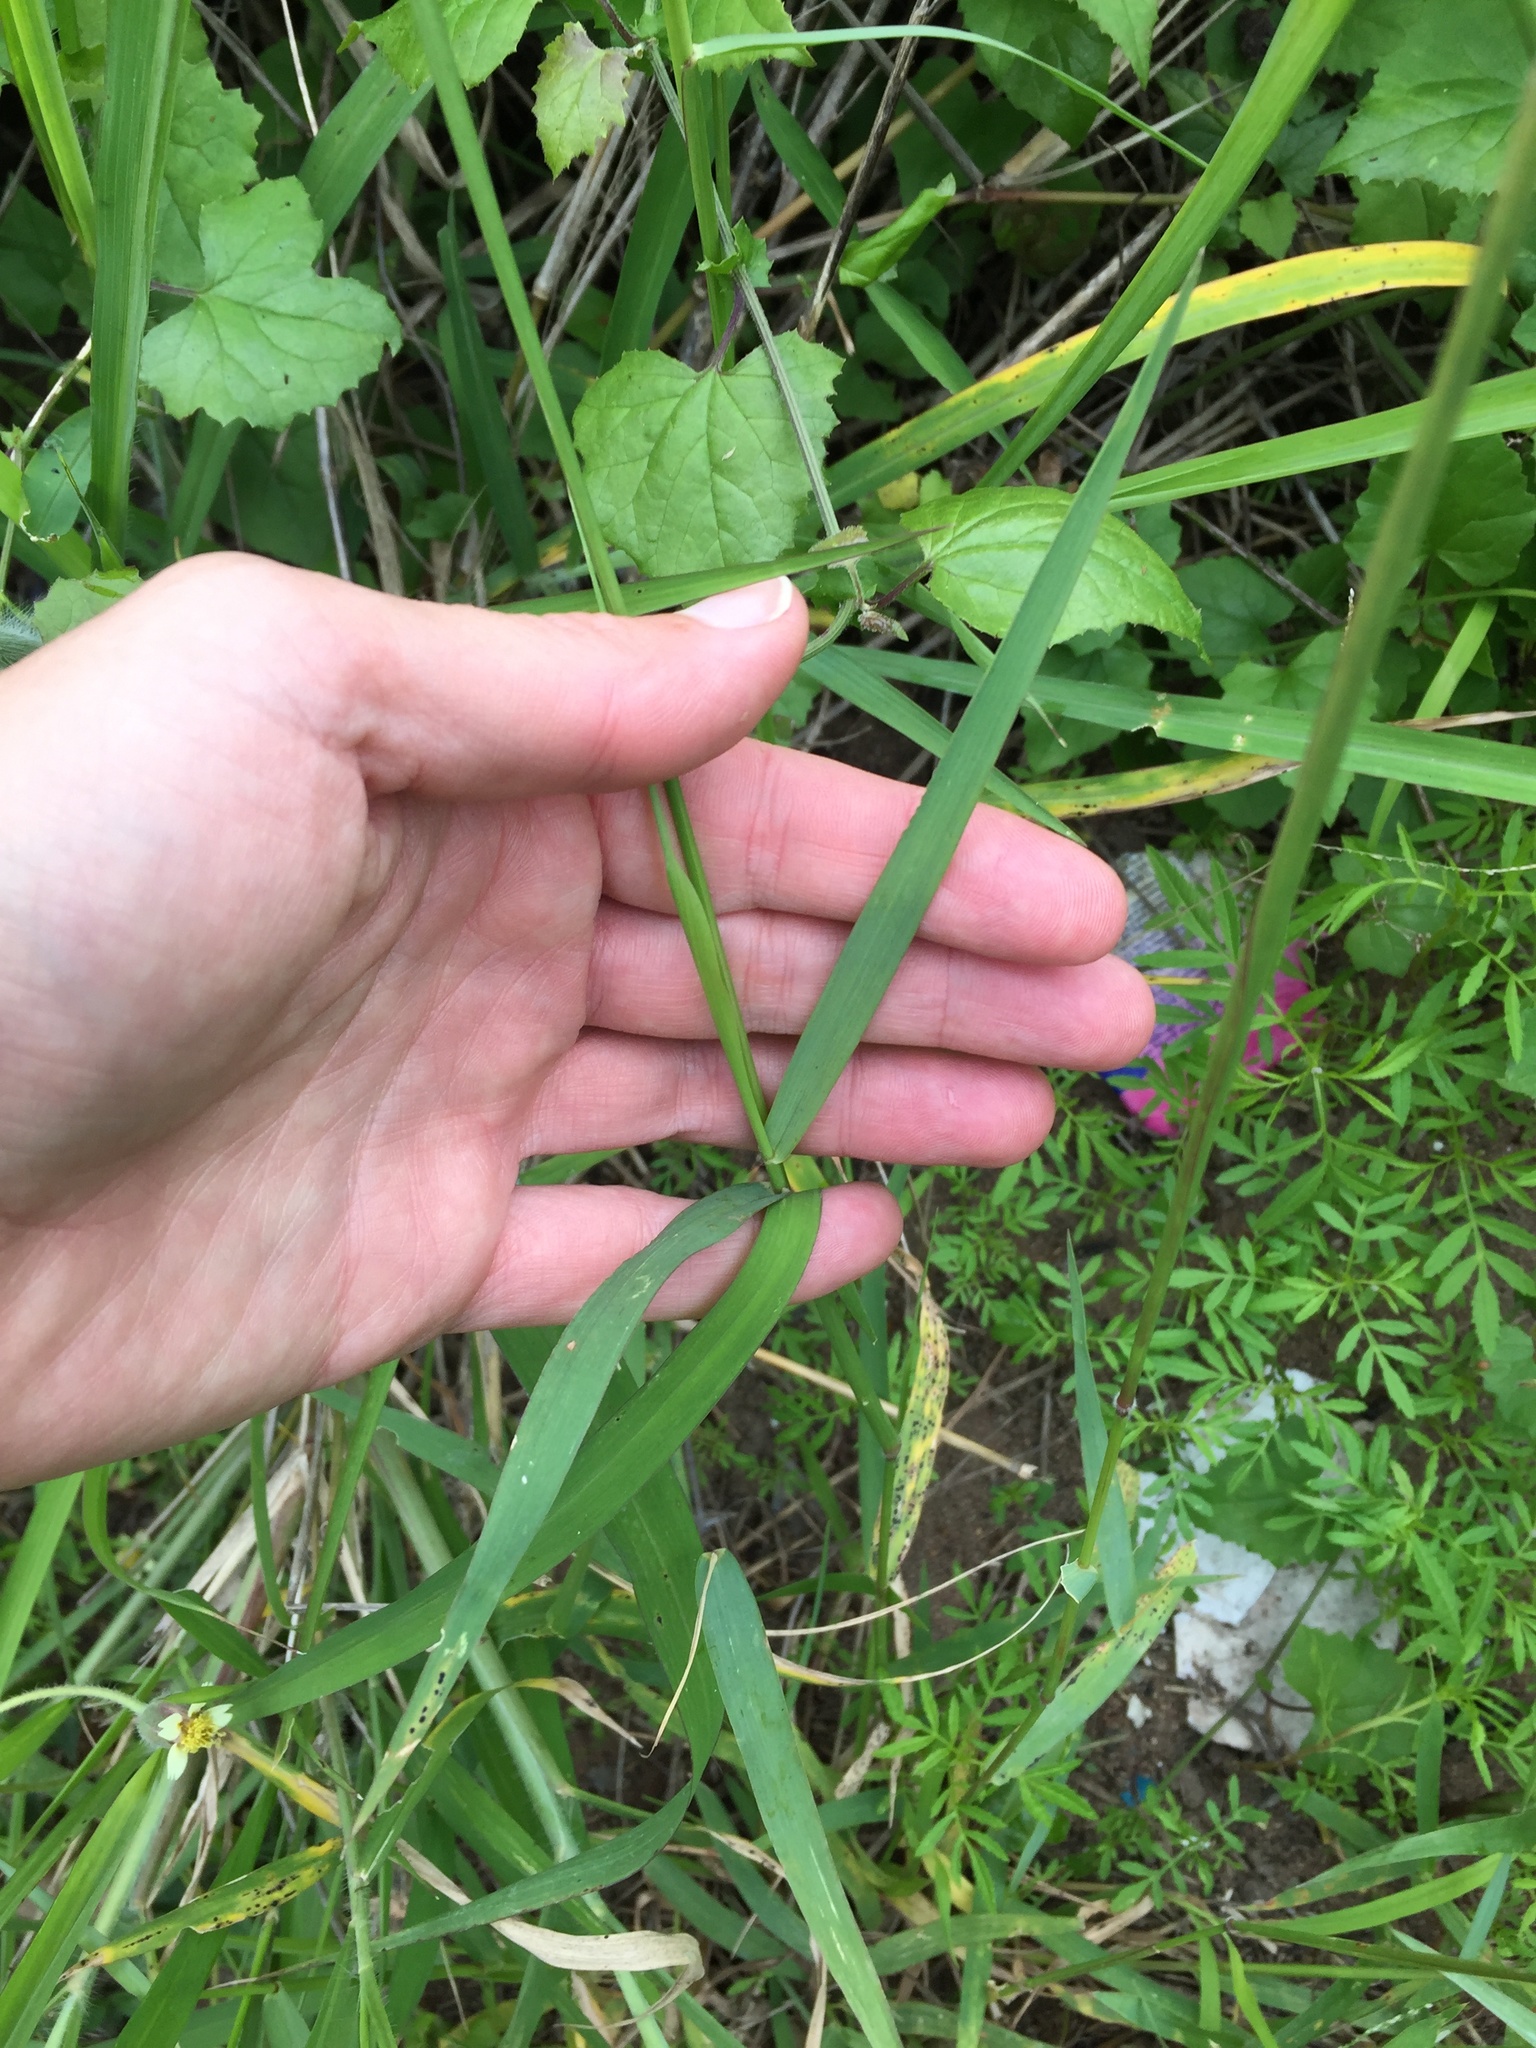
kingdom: Plantae
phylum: Tracheophyta
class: Liliopsida
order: Poales
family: Poaceae
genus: Melinis
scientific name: Melinis repens
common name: Rose natal grass
